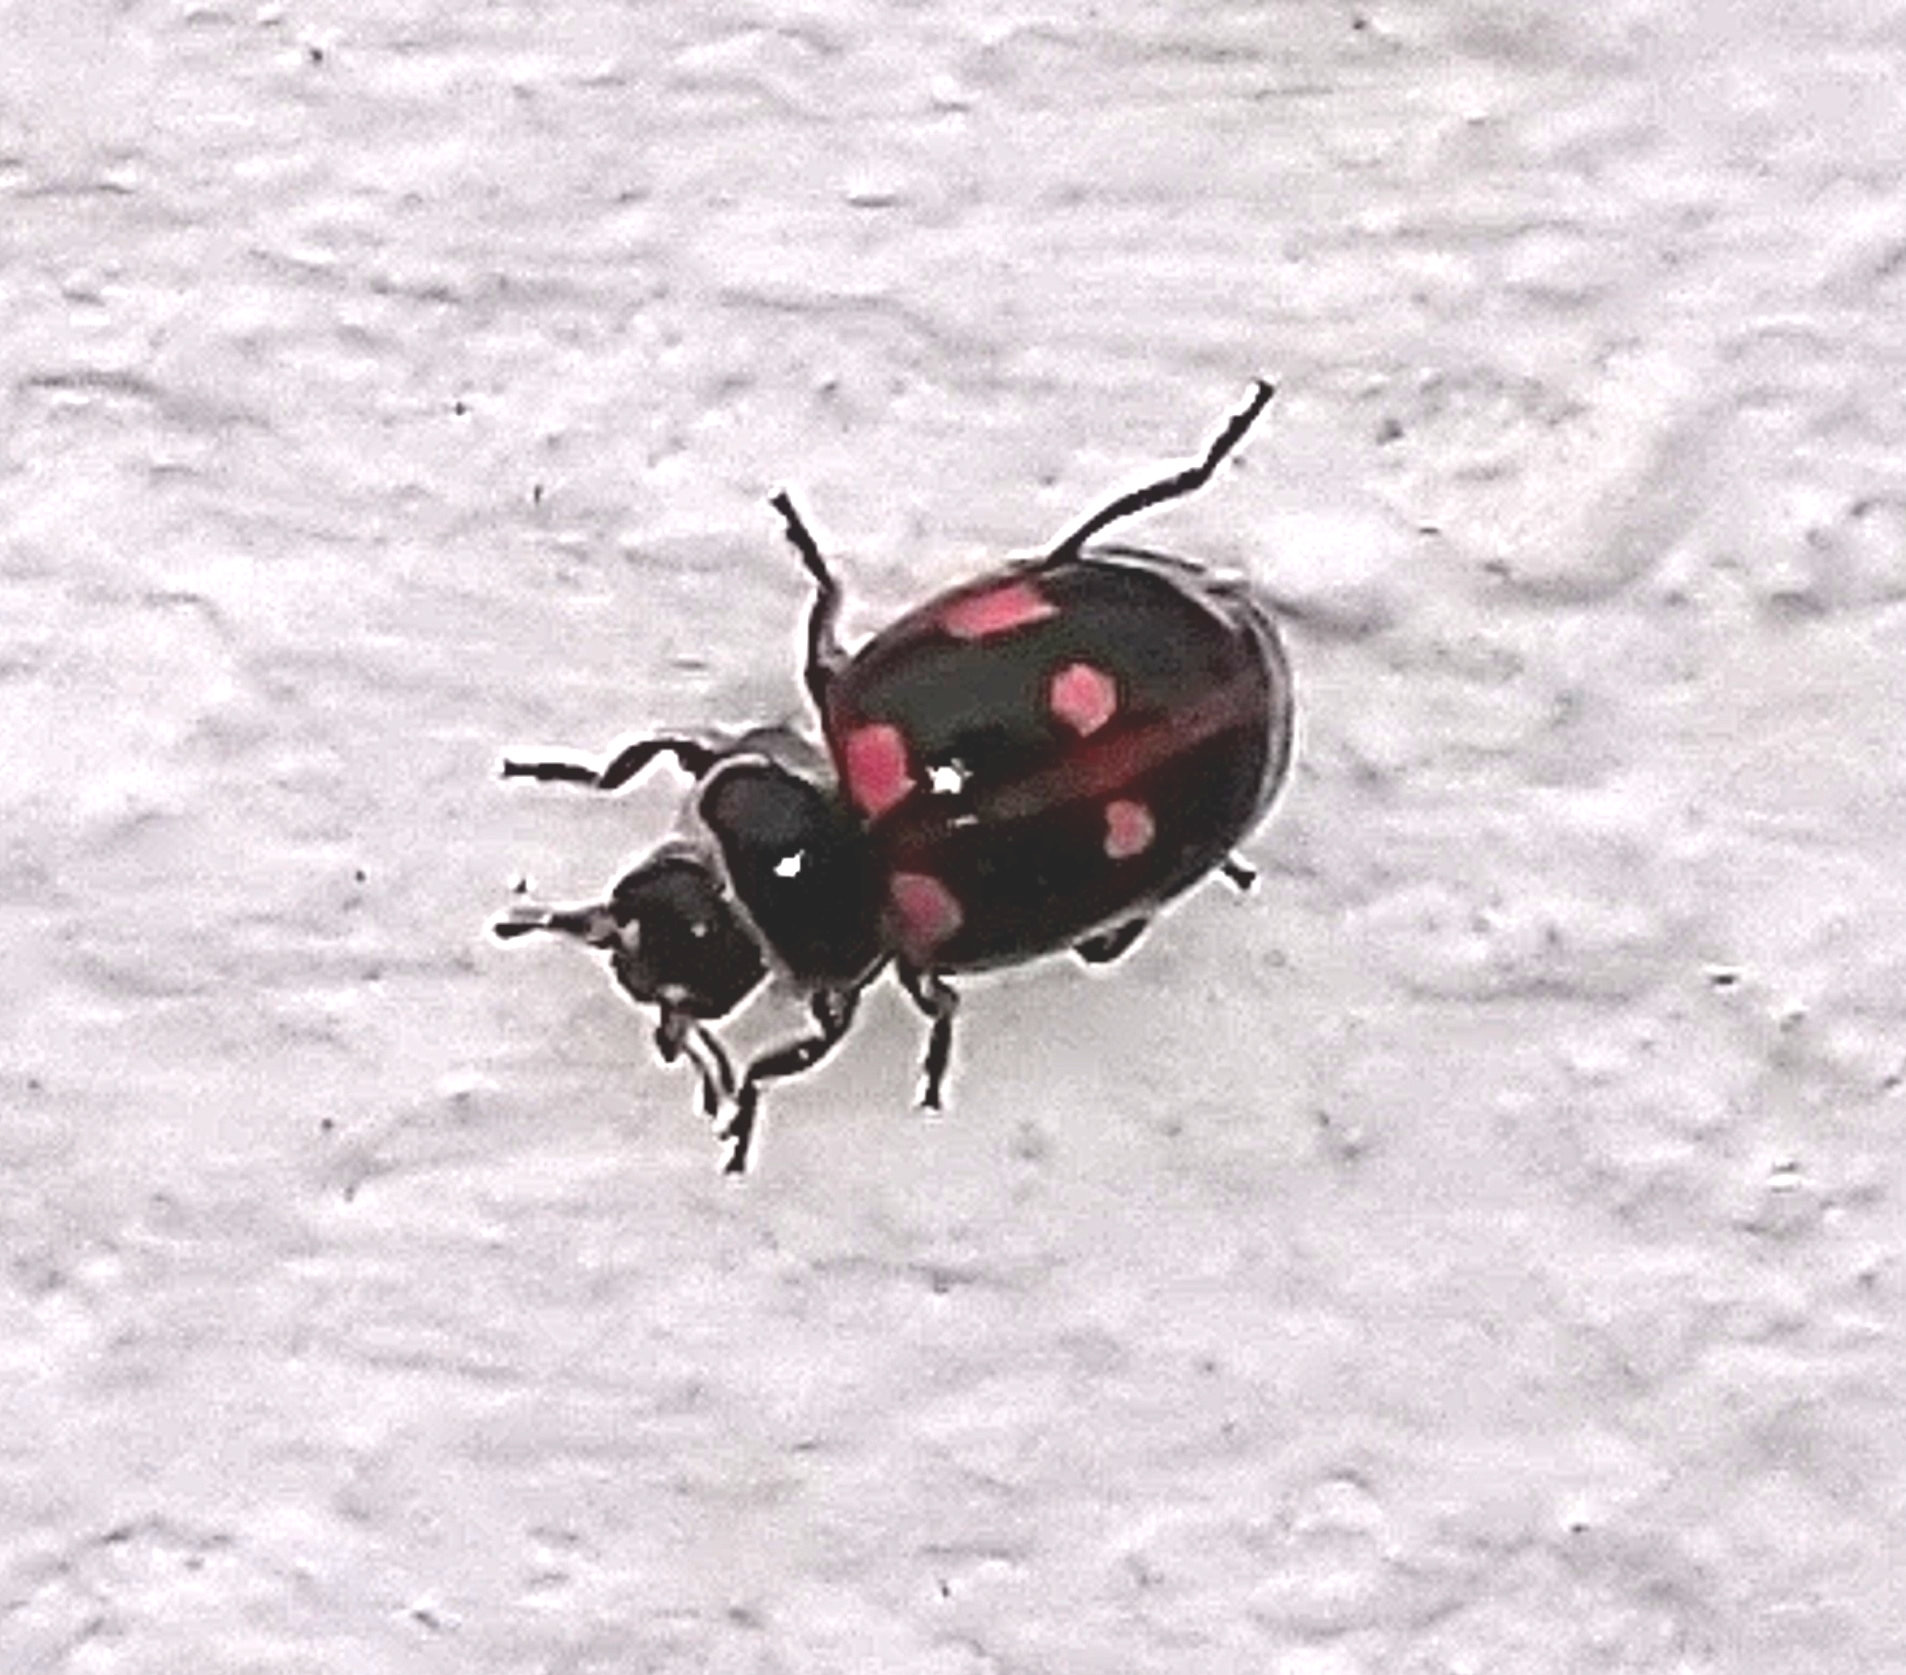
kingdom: Animalia
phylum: Arthropoda
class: Insecta
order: Coleoptera
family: Coccinellidae
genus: Cycloneda
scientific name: Cycloneda patagonica
